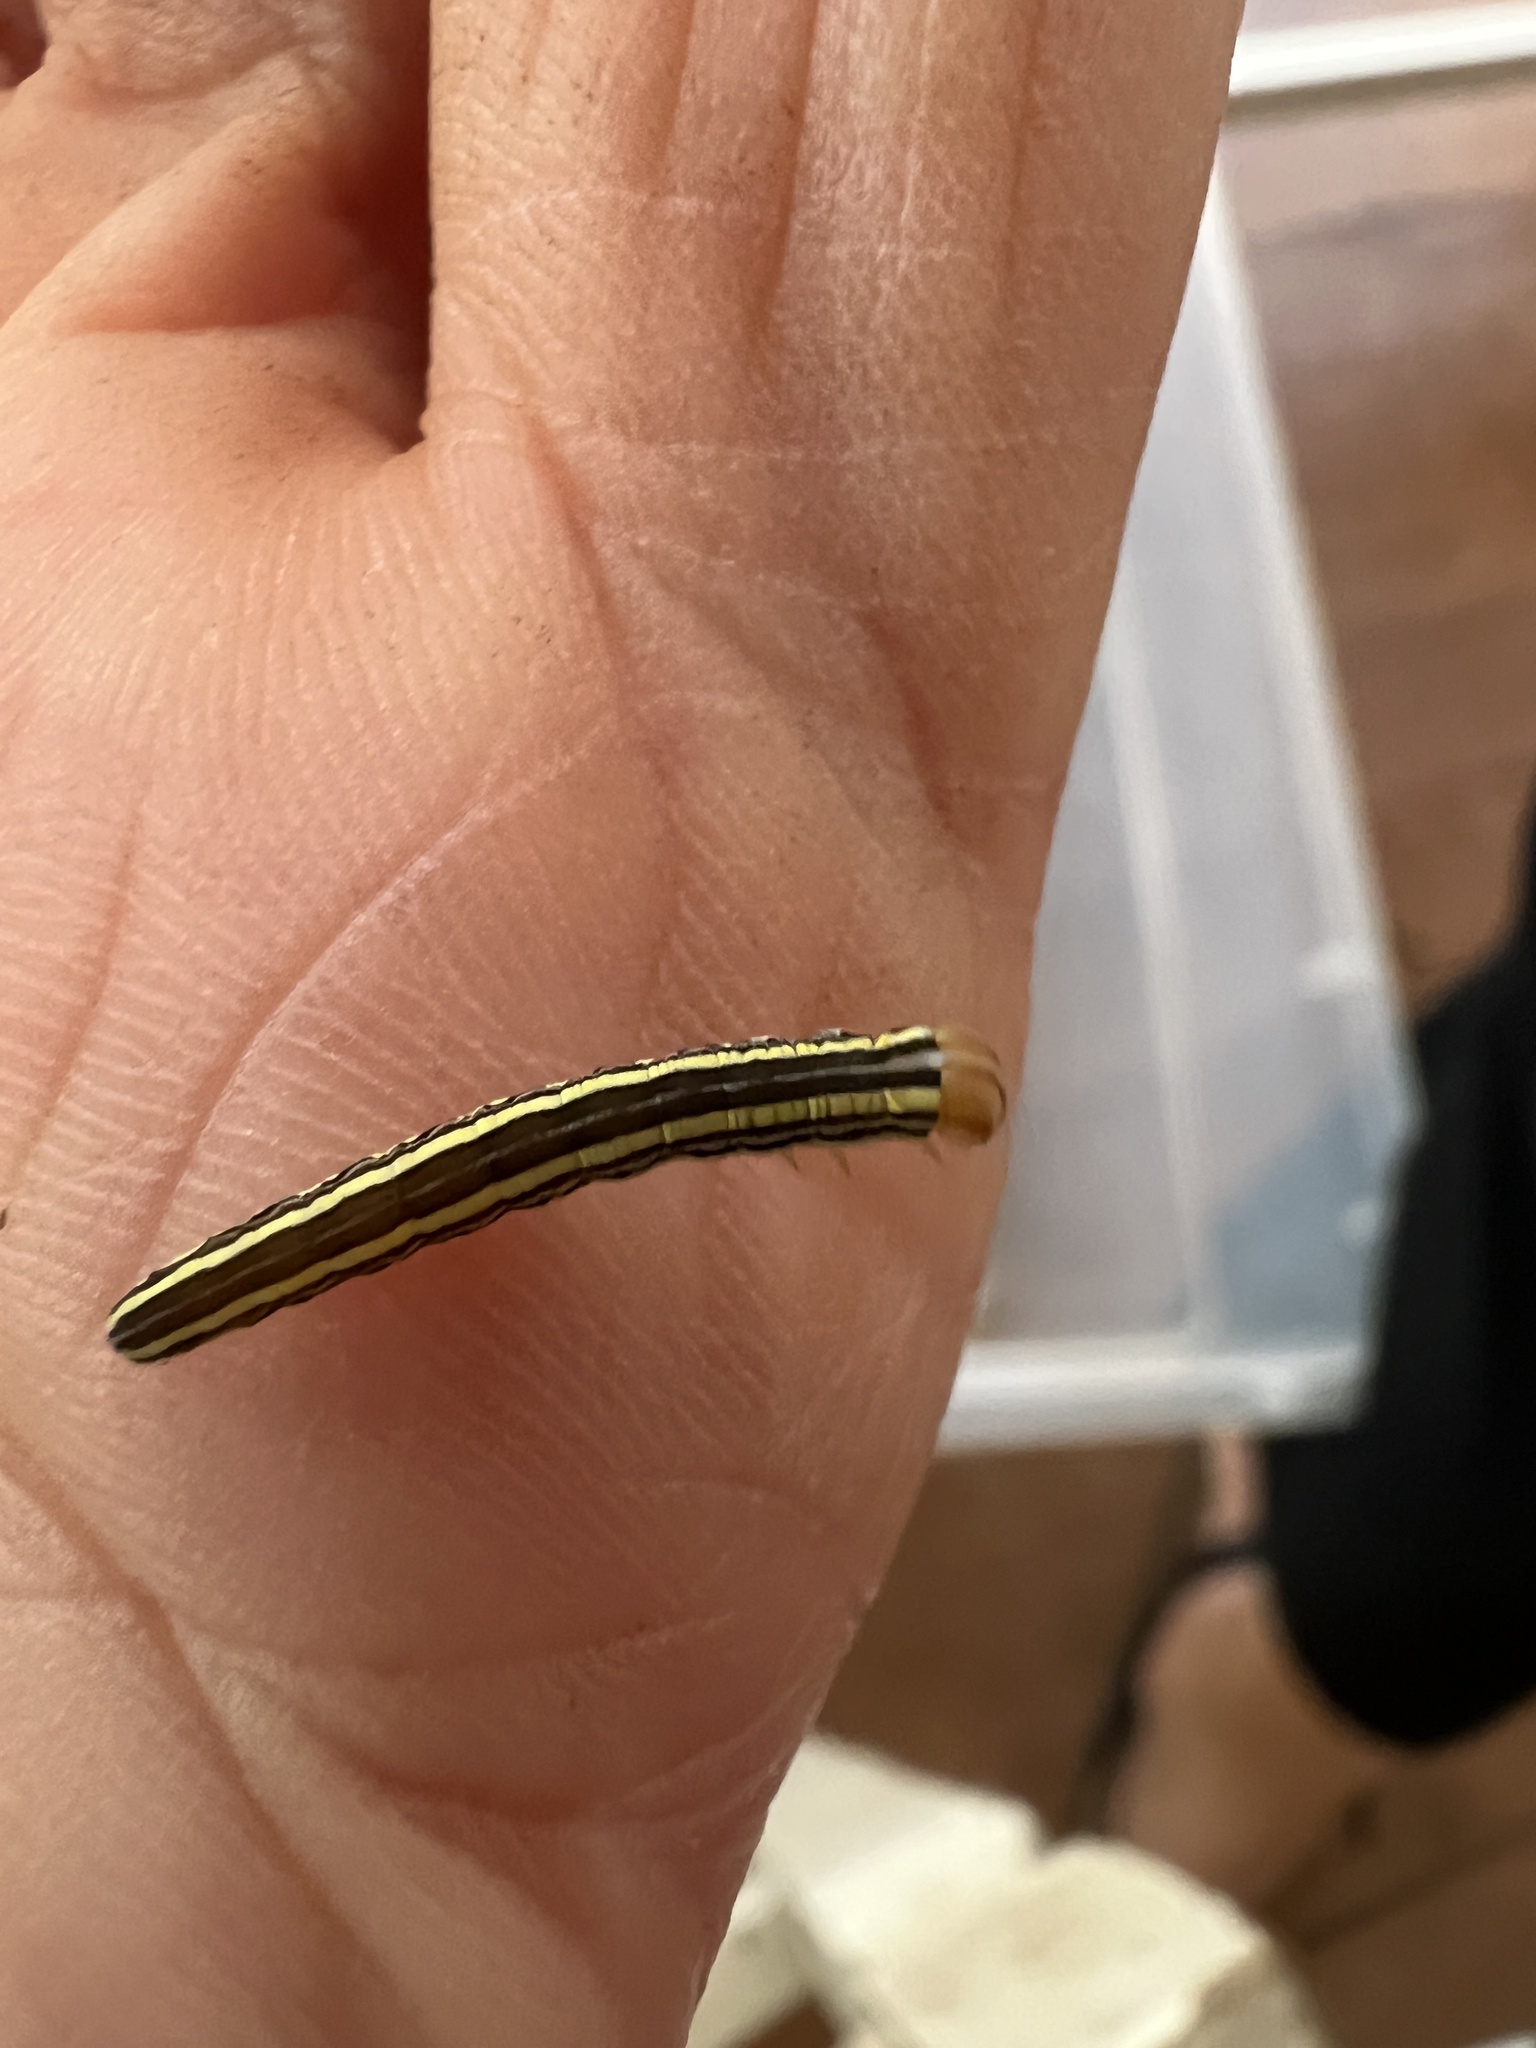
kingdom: Animalia
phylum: Arthropoda
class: Insecta
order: Lepidoptera
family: Noctuidae
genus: Trichordestra
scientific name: Trichordestra legitima
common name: Striped garden caterpillar
